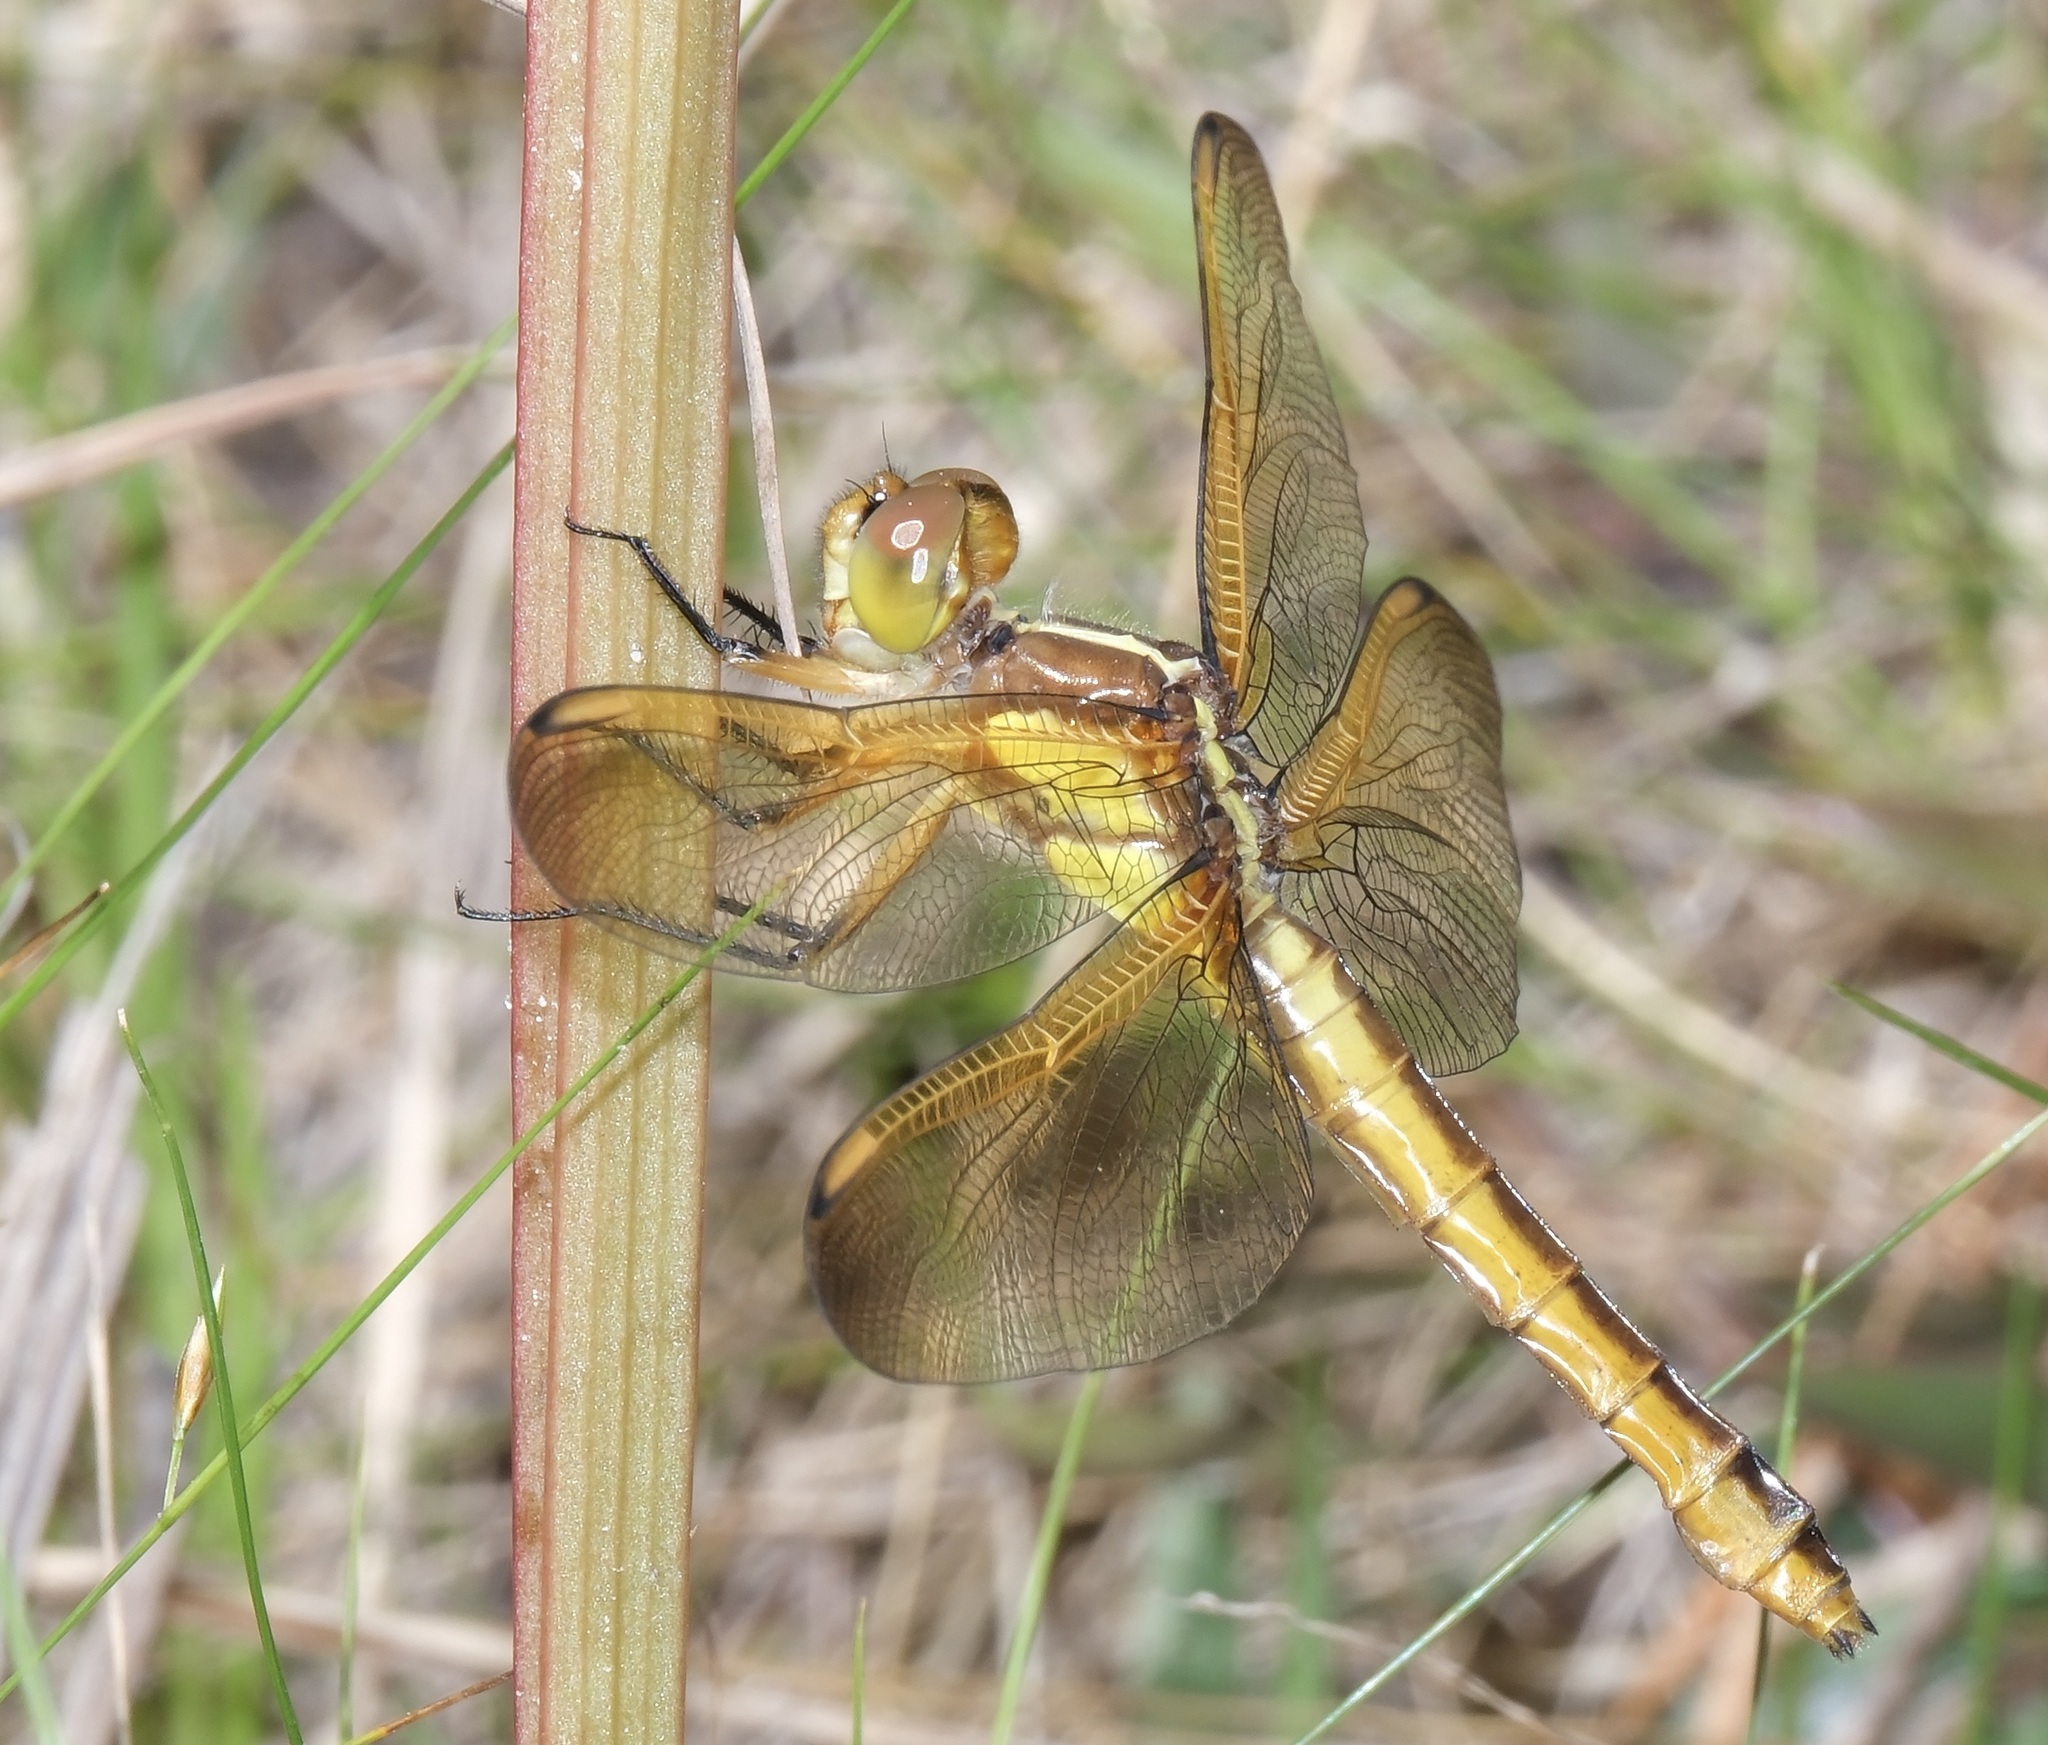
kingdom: Animalia
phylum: Arthropoda
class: Insecta
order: Odonata
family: Libellulidae
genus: Libellula
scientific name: Libellula flavida
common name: Yellow-sided skimmer
